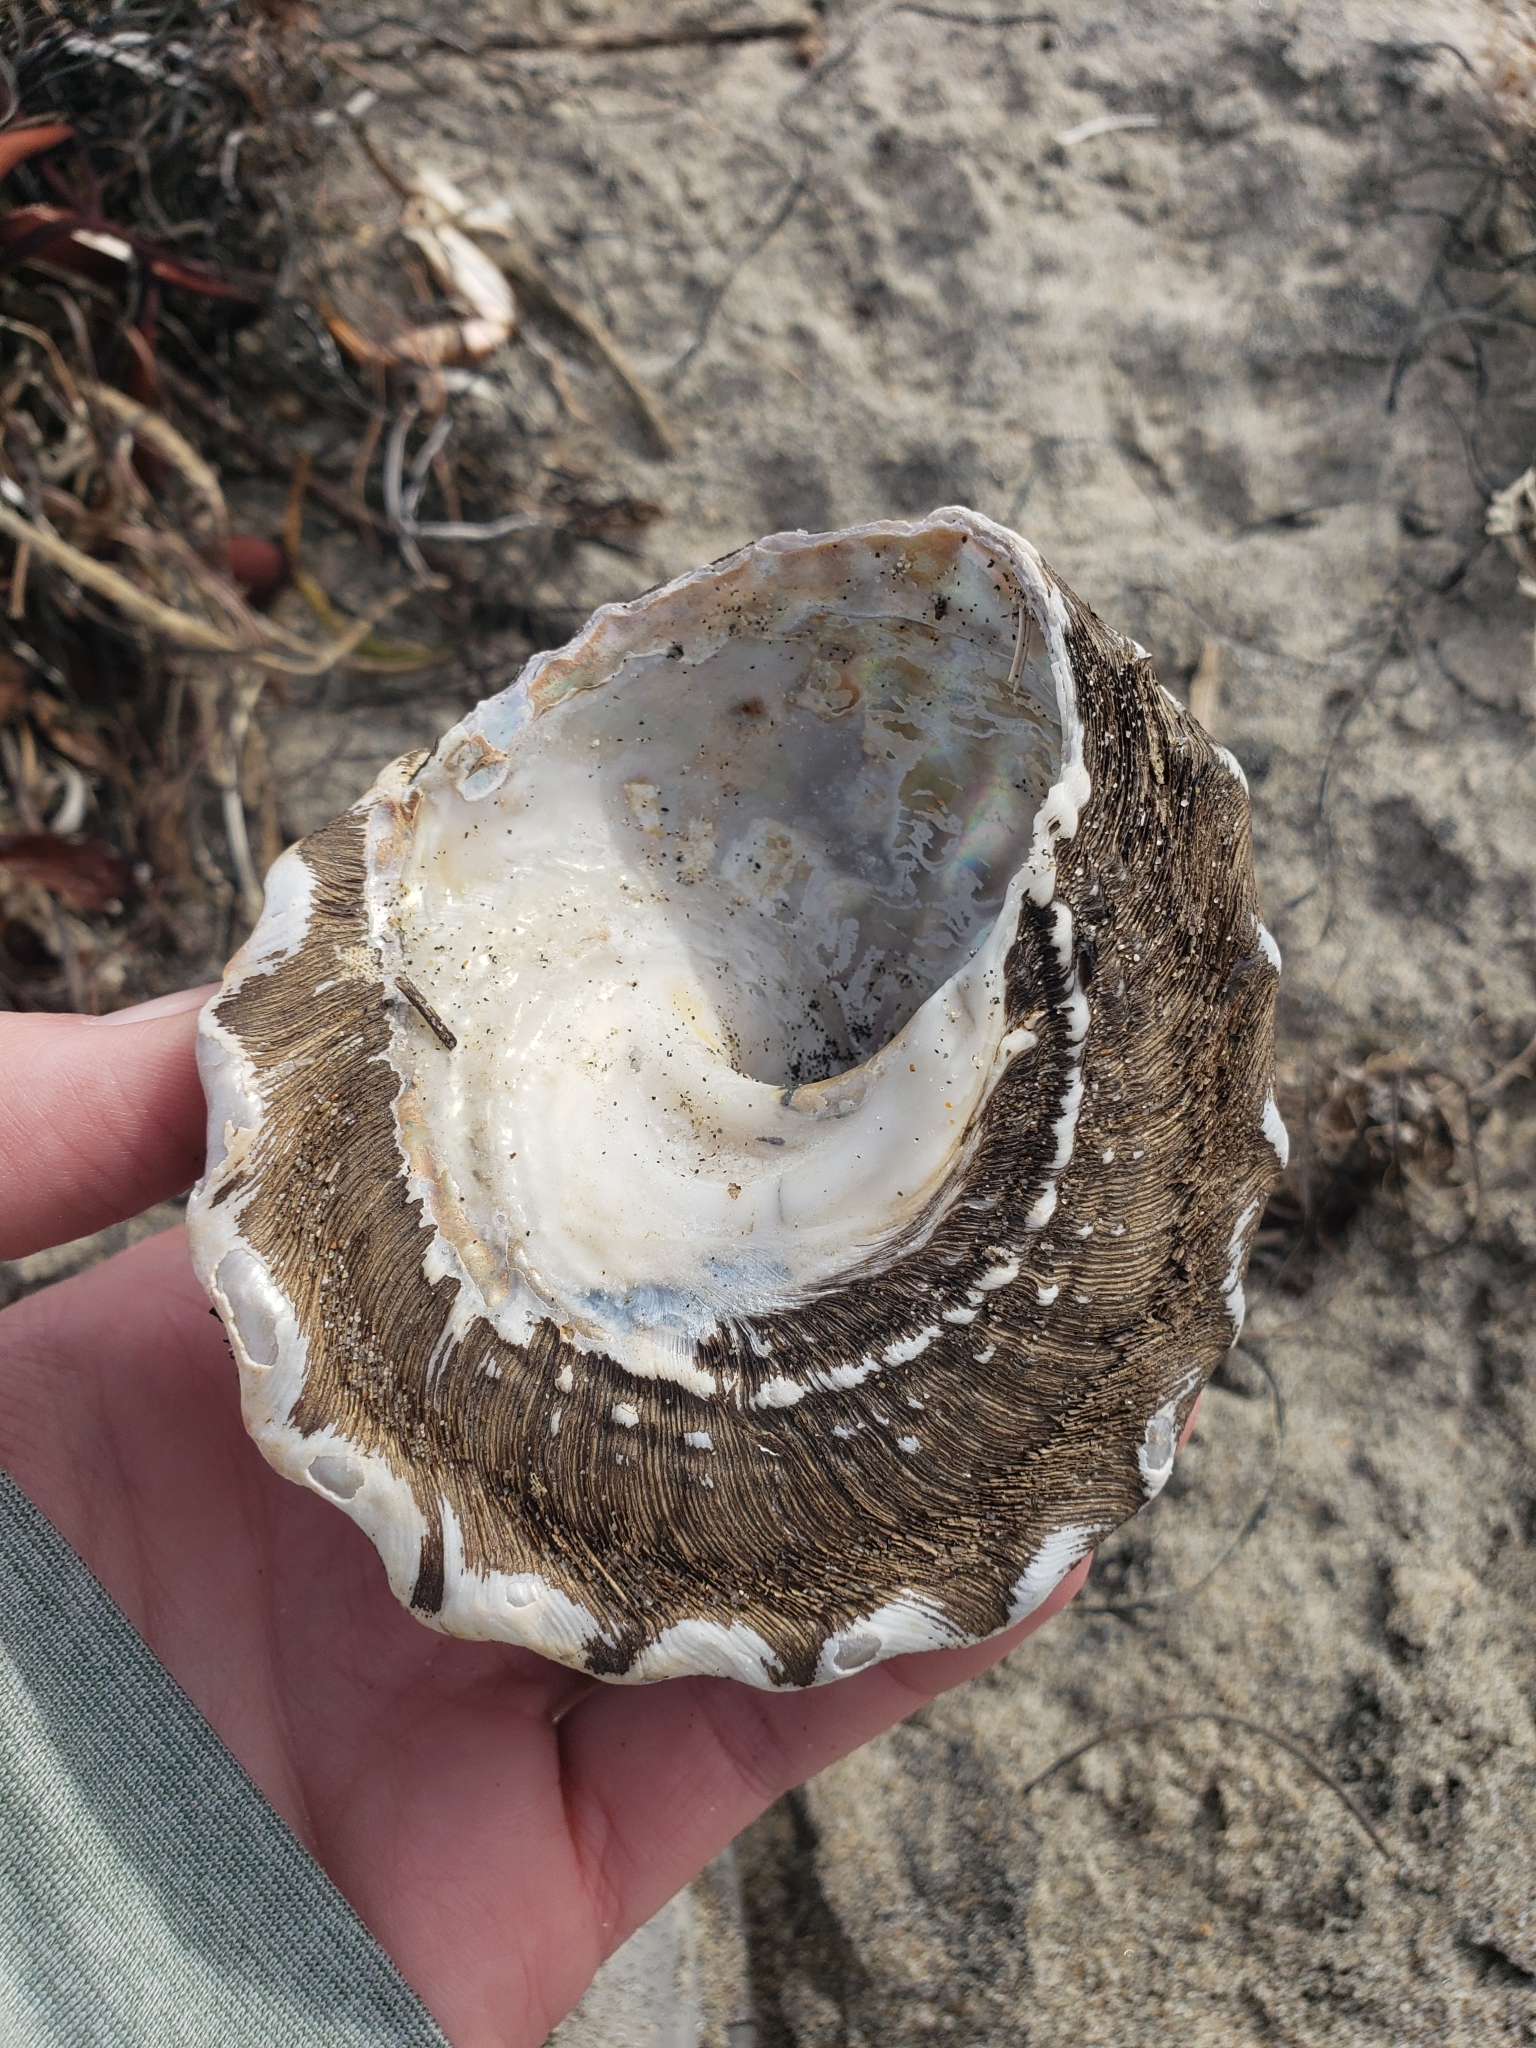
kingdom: Animalia
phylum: Mollusca
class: Gastropoda
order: Trochida
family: Turbinidae
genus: Megastraea
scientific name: Megastraea undosa
